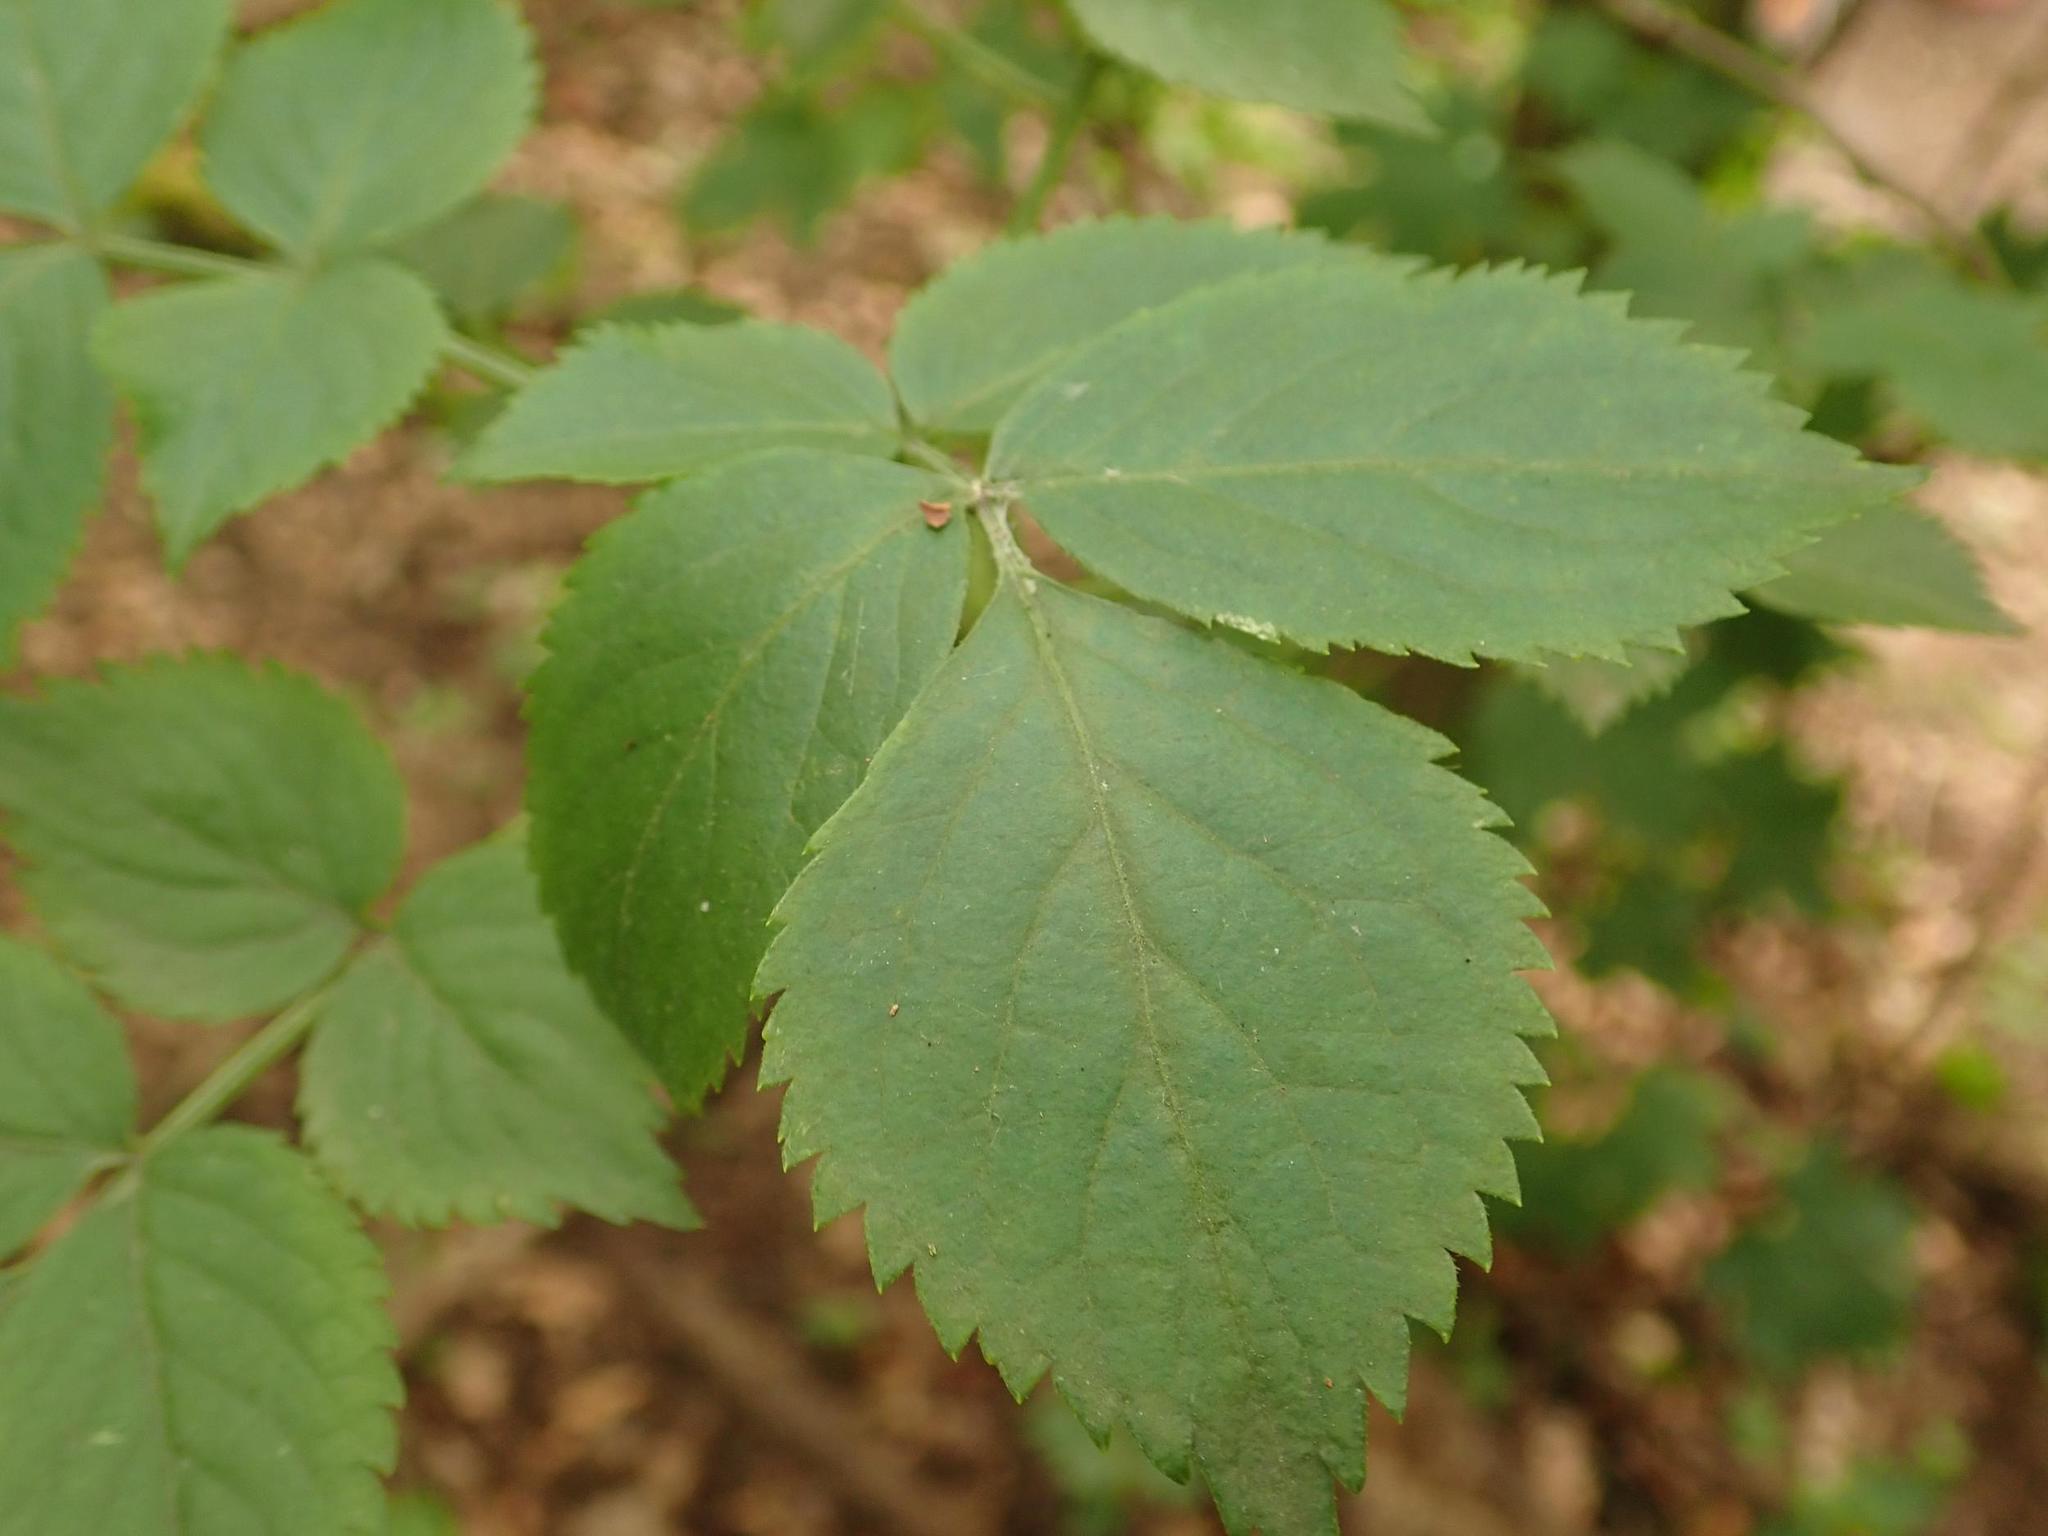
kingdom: Plantae
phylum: Tracheophyta
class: Magnoliopsida
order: Dipsacales
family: Viburnaceae
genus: Sambucus
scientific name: Sambucus nigra
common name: Elder
